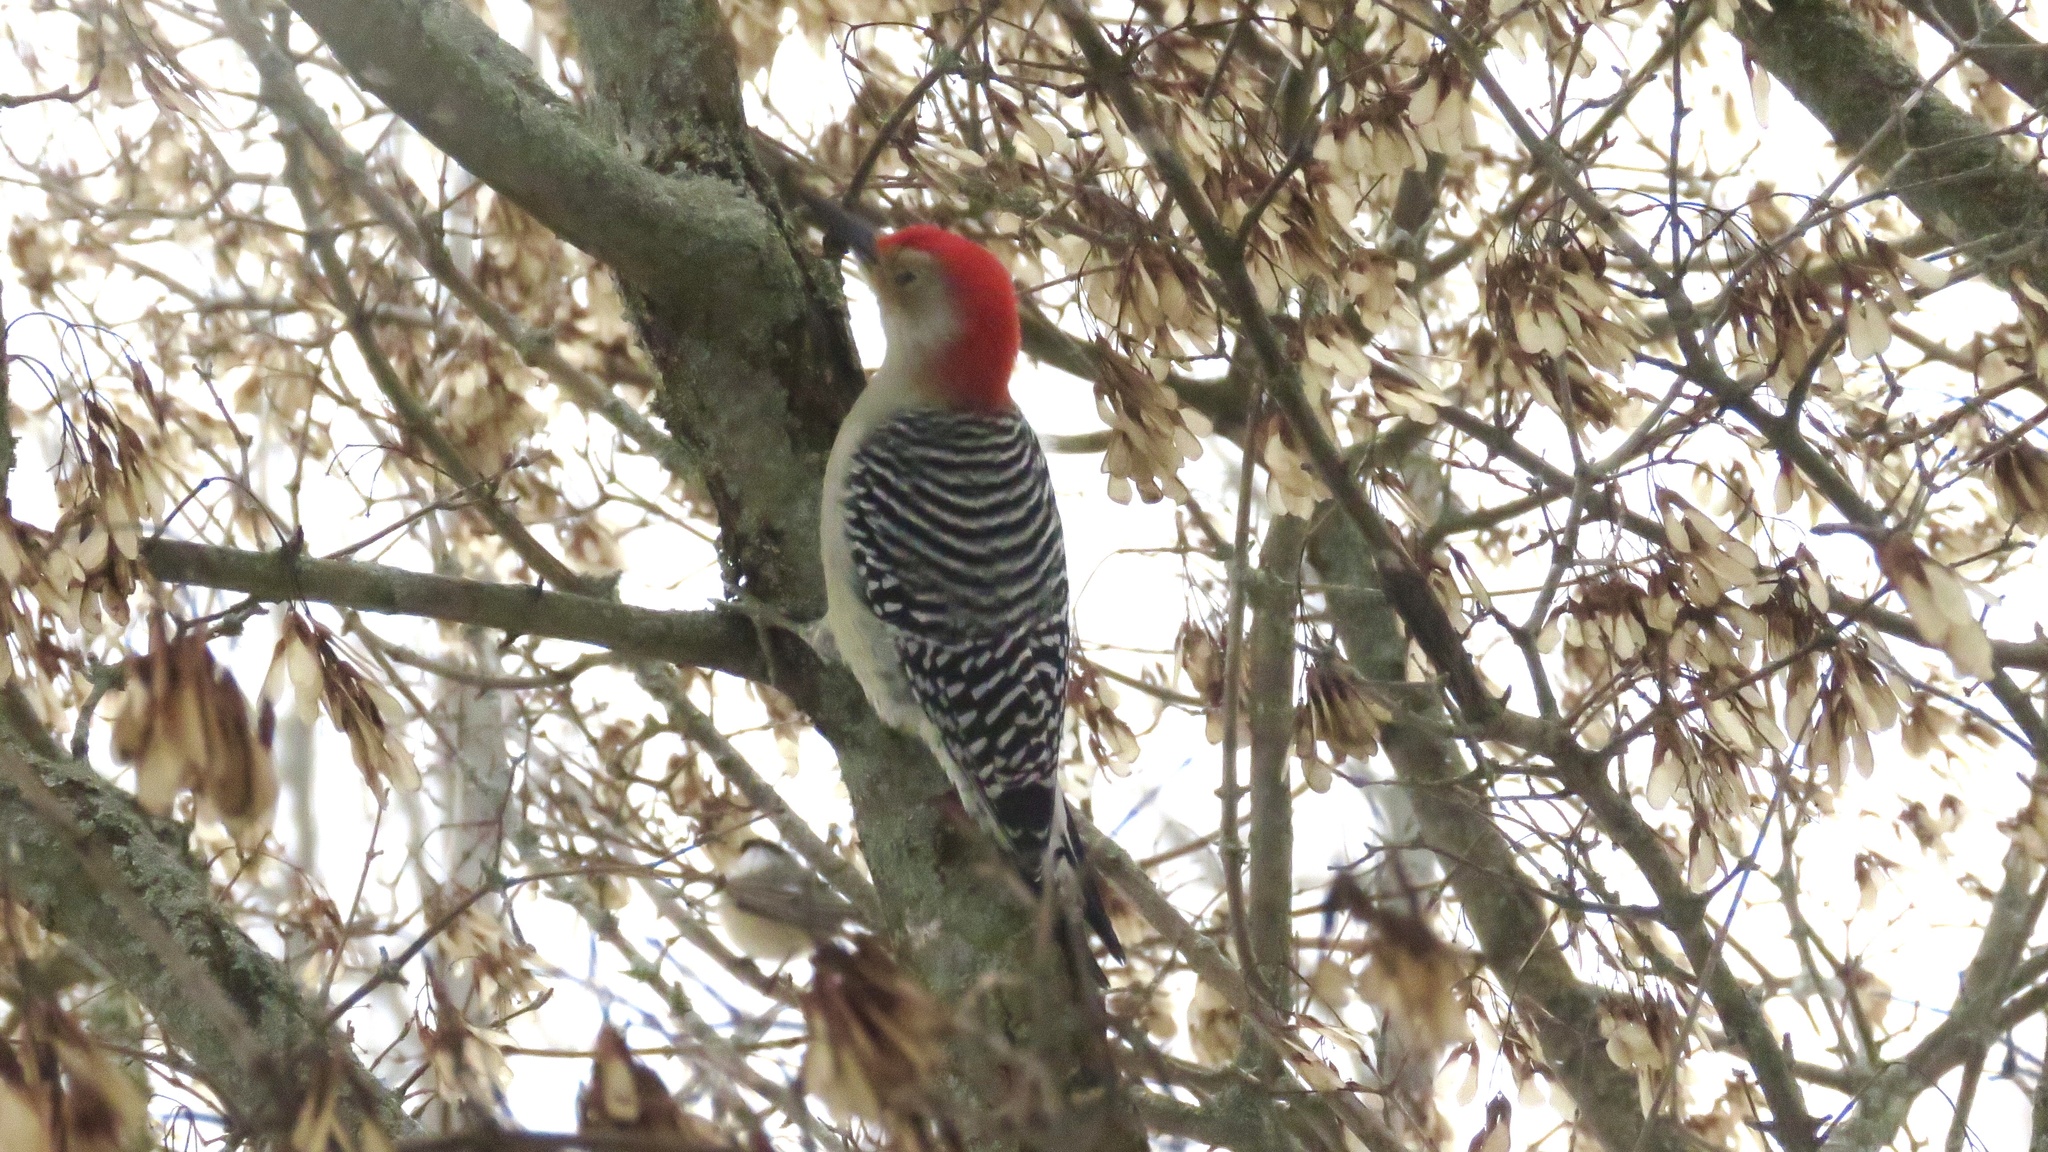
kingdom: Animalia
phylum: Chordata
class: Aves
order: Piciformes
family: Picidae
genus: Melanerpes
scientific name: Melanerpes carolinus
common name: Red-bellied woodpecker
